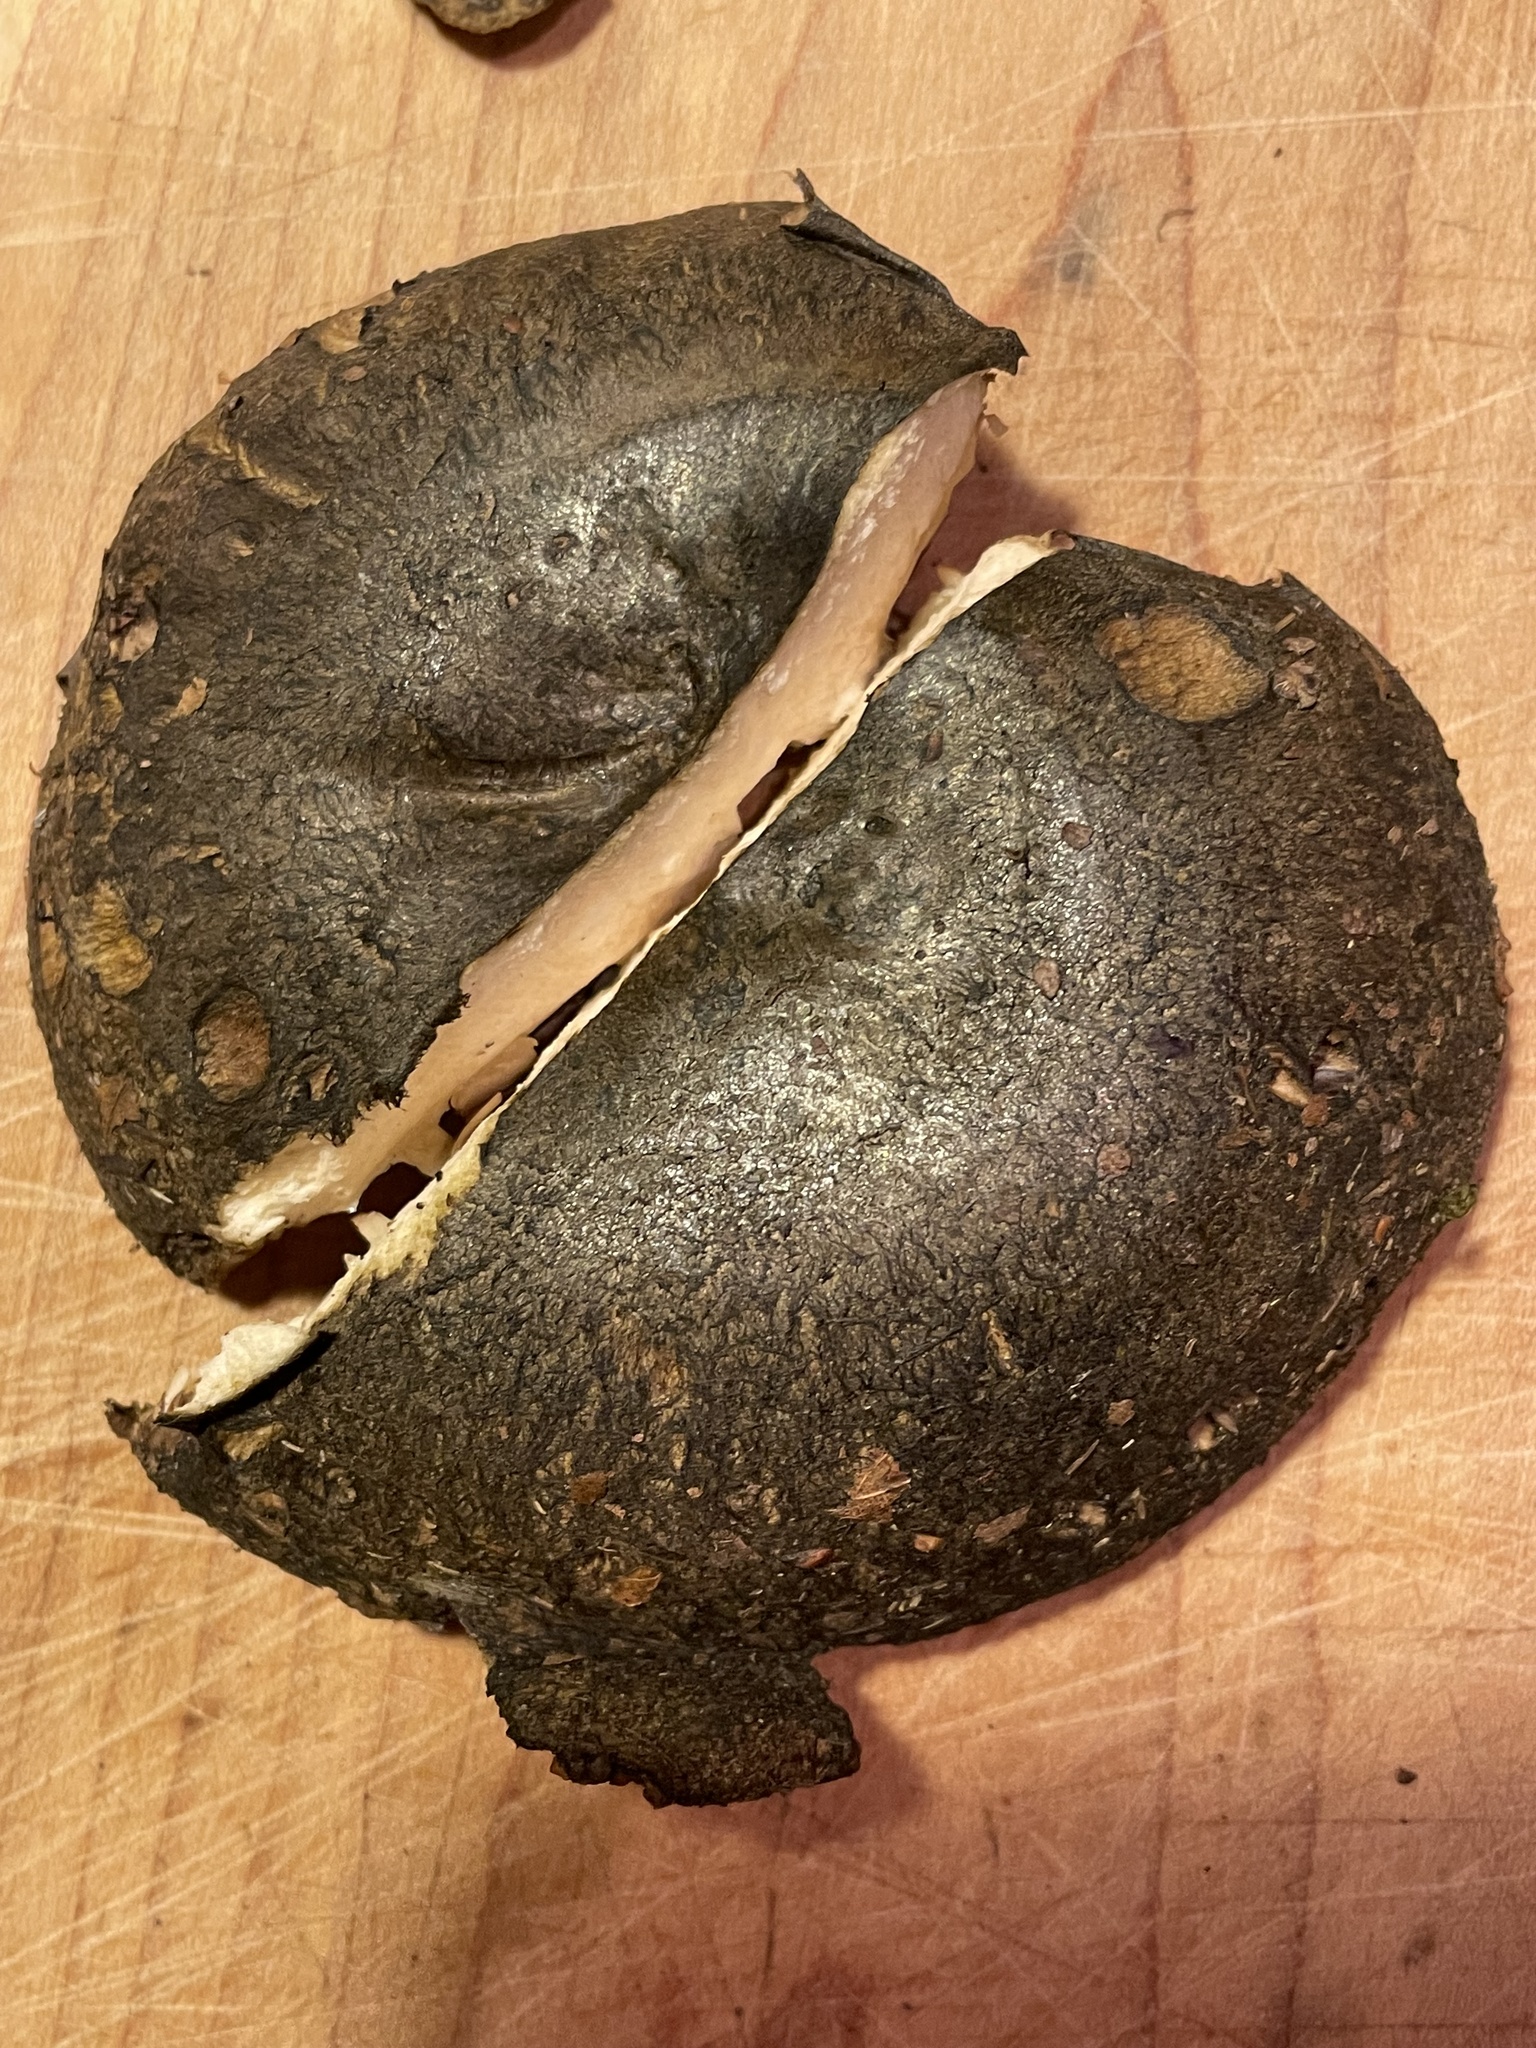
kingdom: Fungi
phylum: Basidiomycota
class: Agaricomycetes
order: Russulales
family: Russulaceae
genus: Lactarius
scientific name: Lactarius atroviridis
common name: Dark-spotted milkcap
